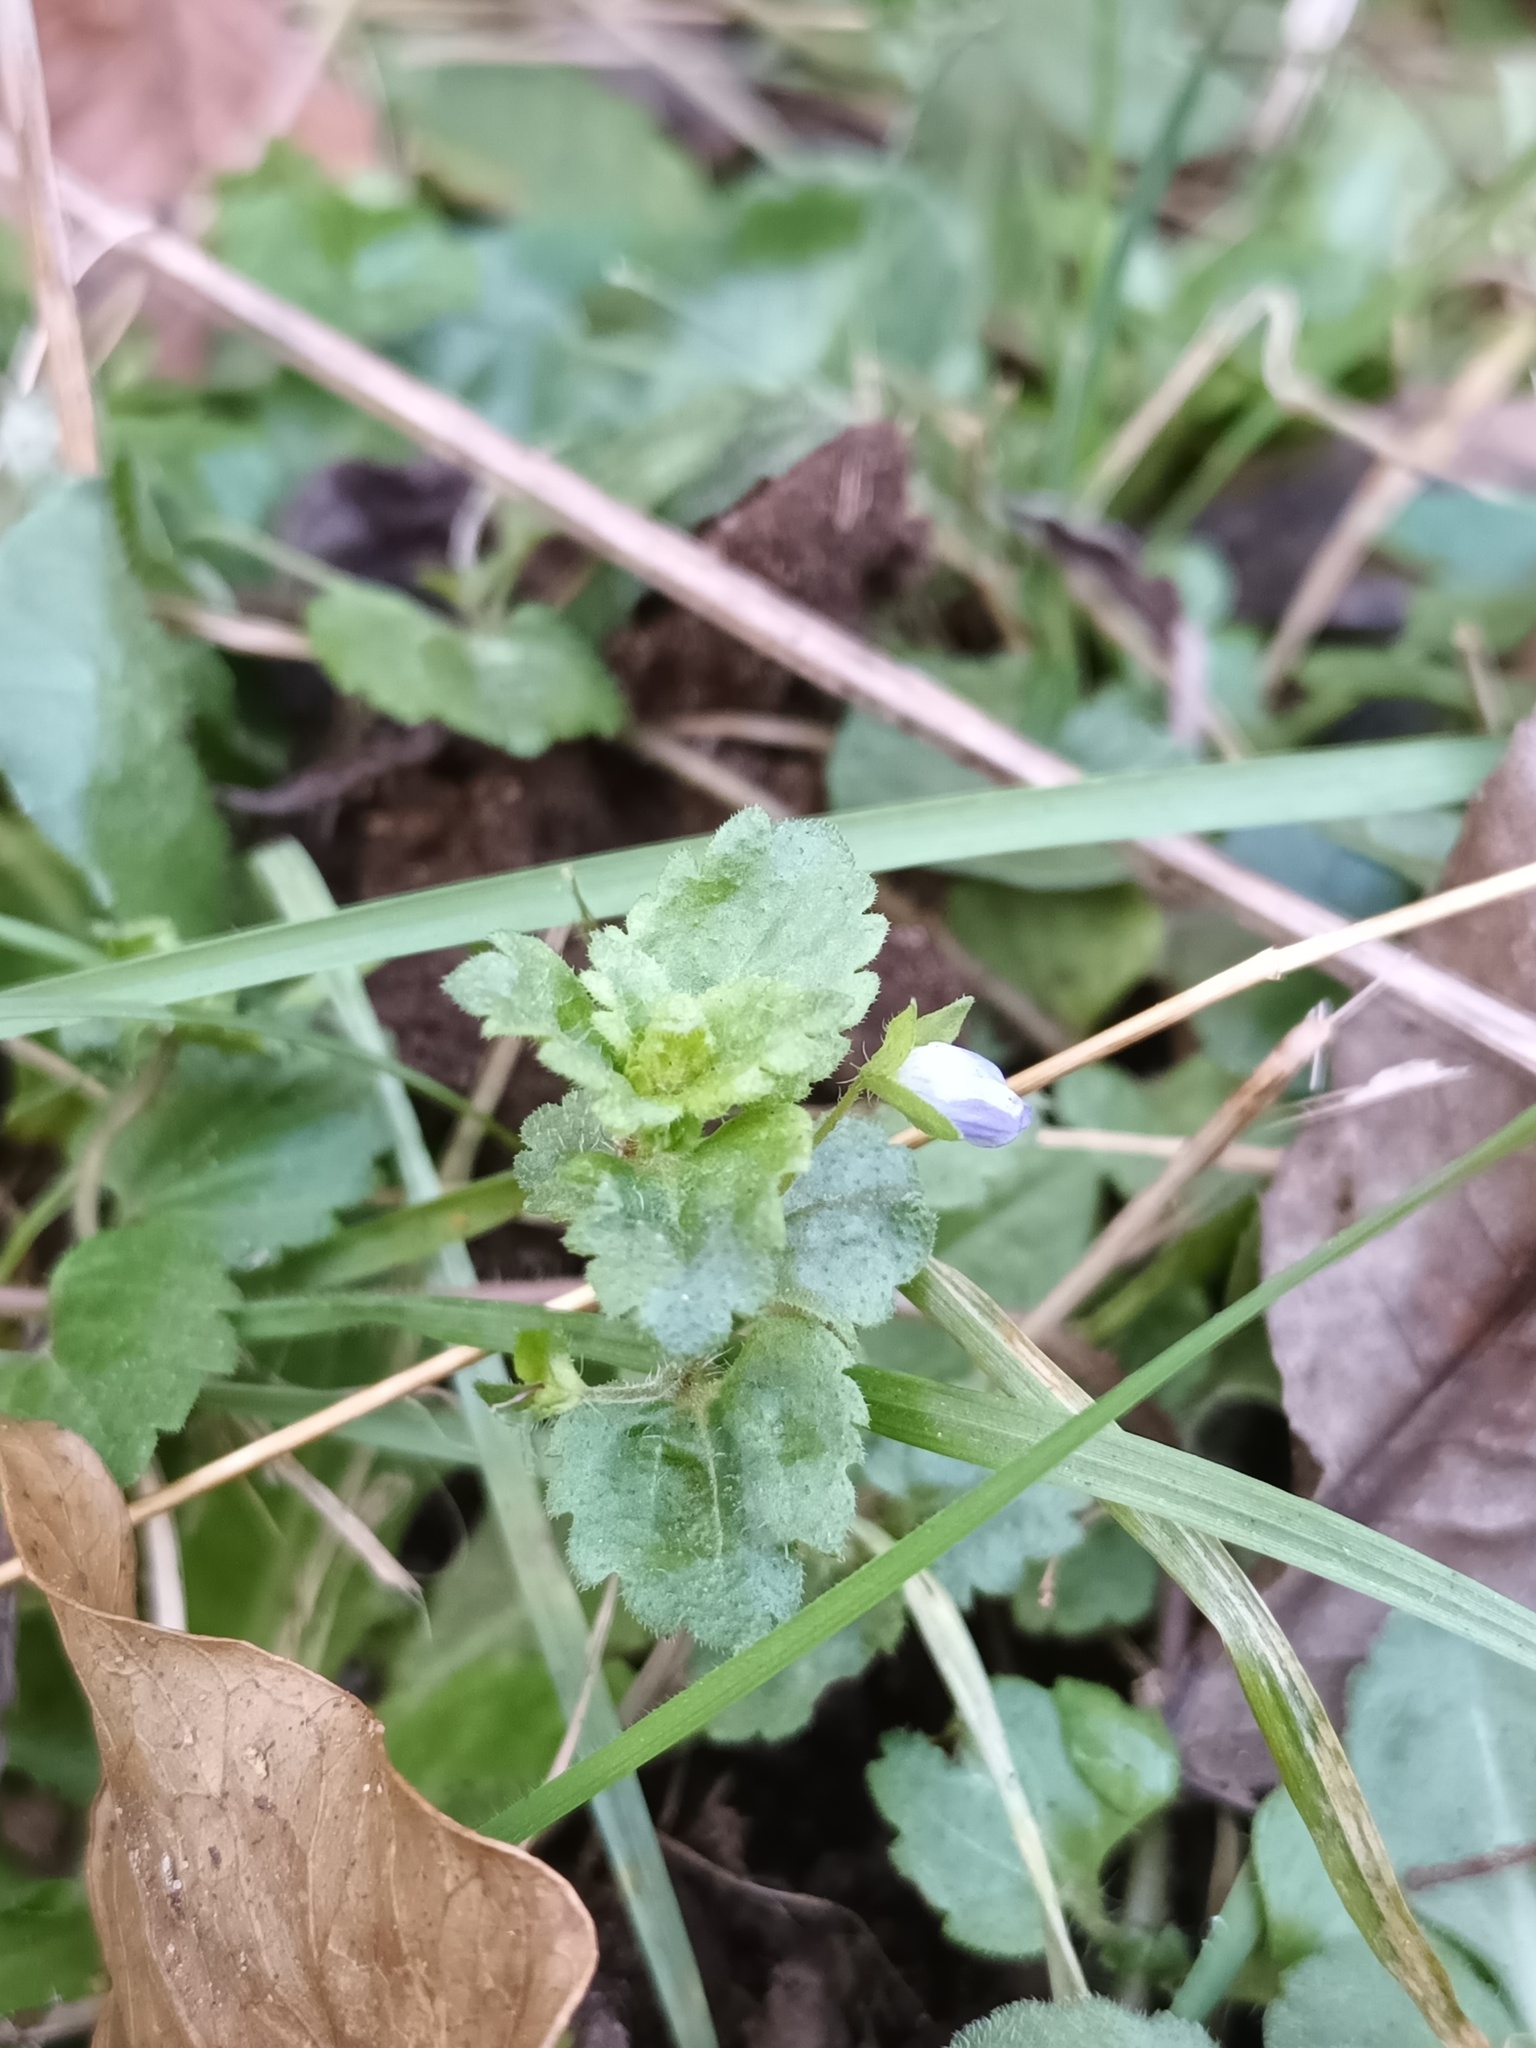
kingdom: Plantae
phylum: Tracheophyta
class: Magnoliopsida
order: Lamiales
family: Plantaginaceae
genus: Veronica
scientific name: Veronica persica
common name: Common field-speedwell
